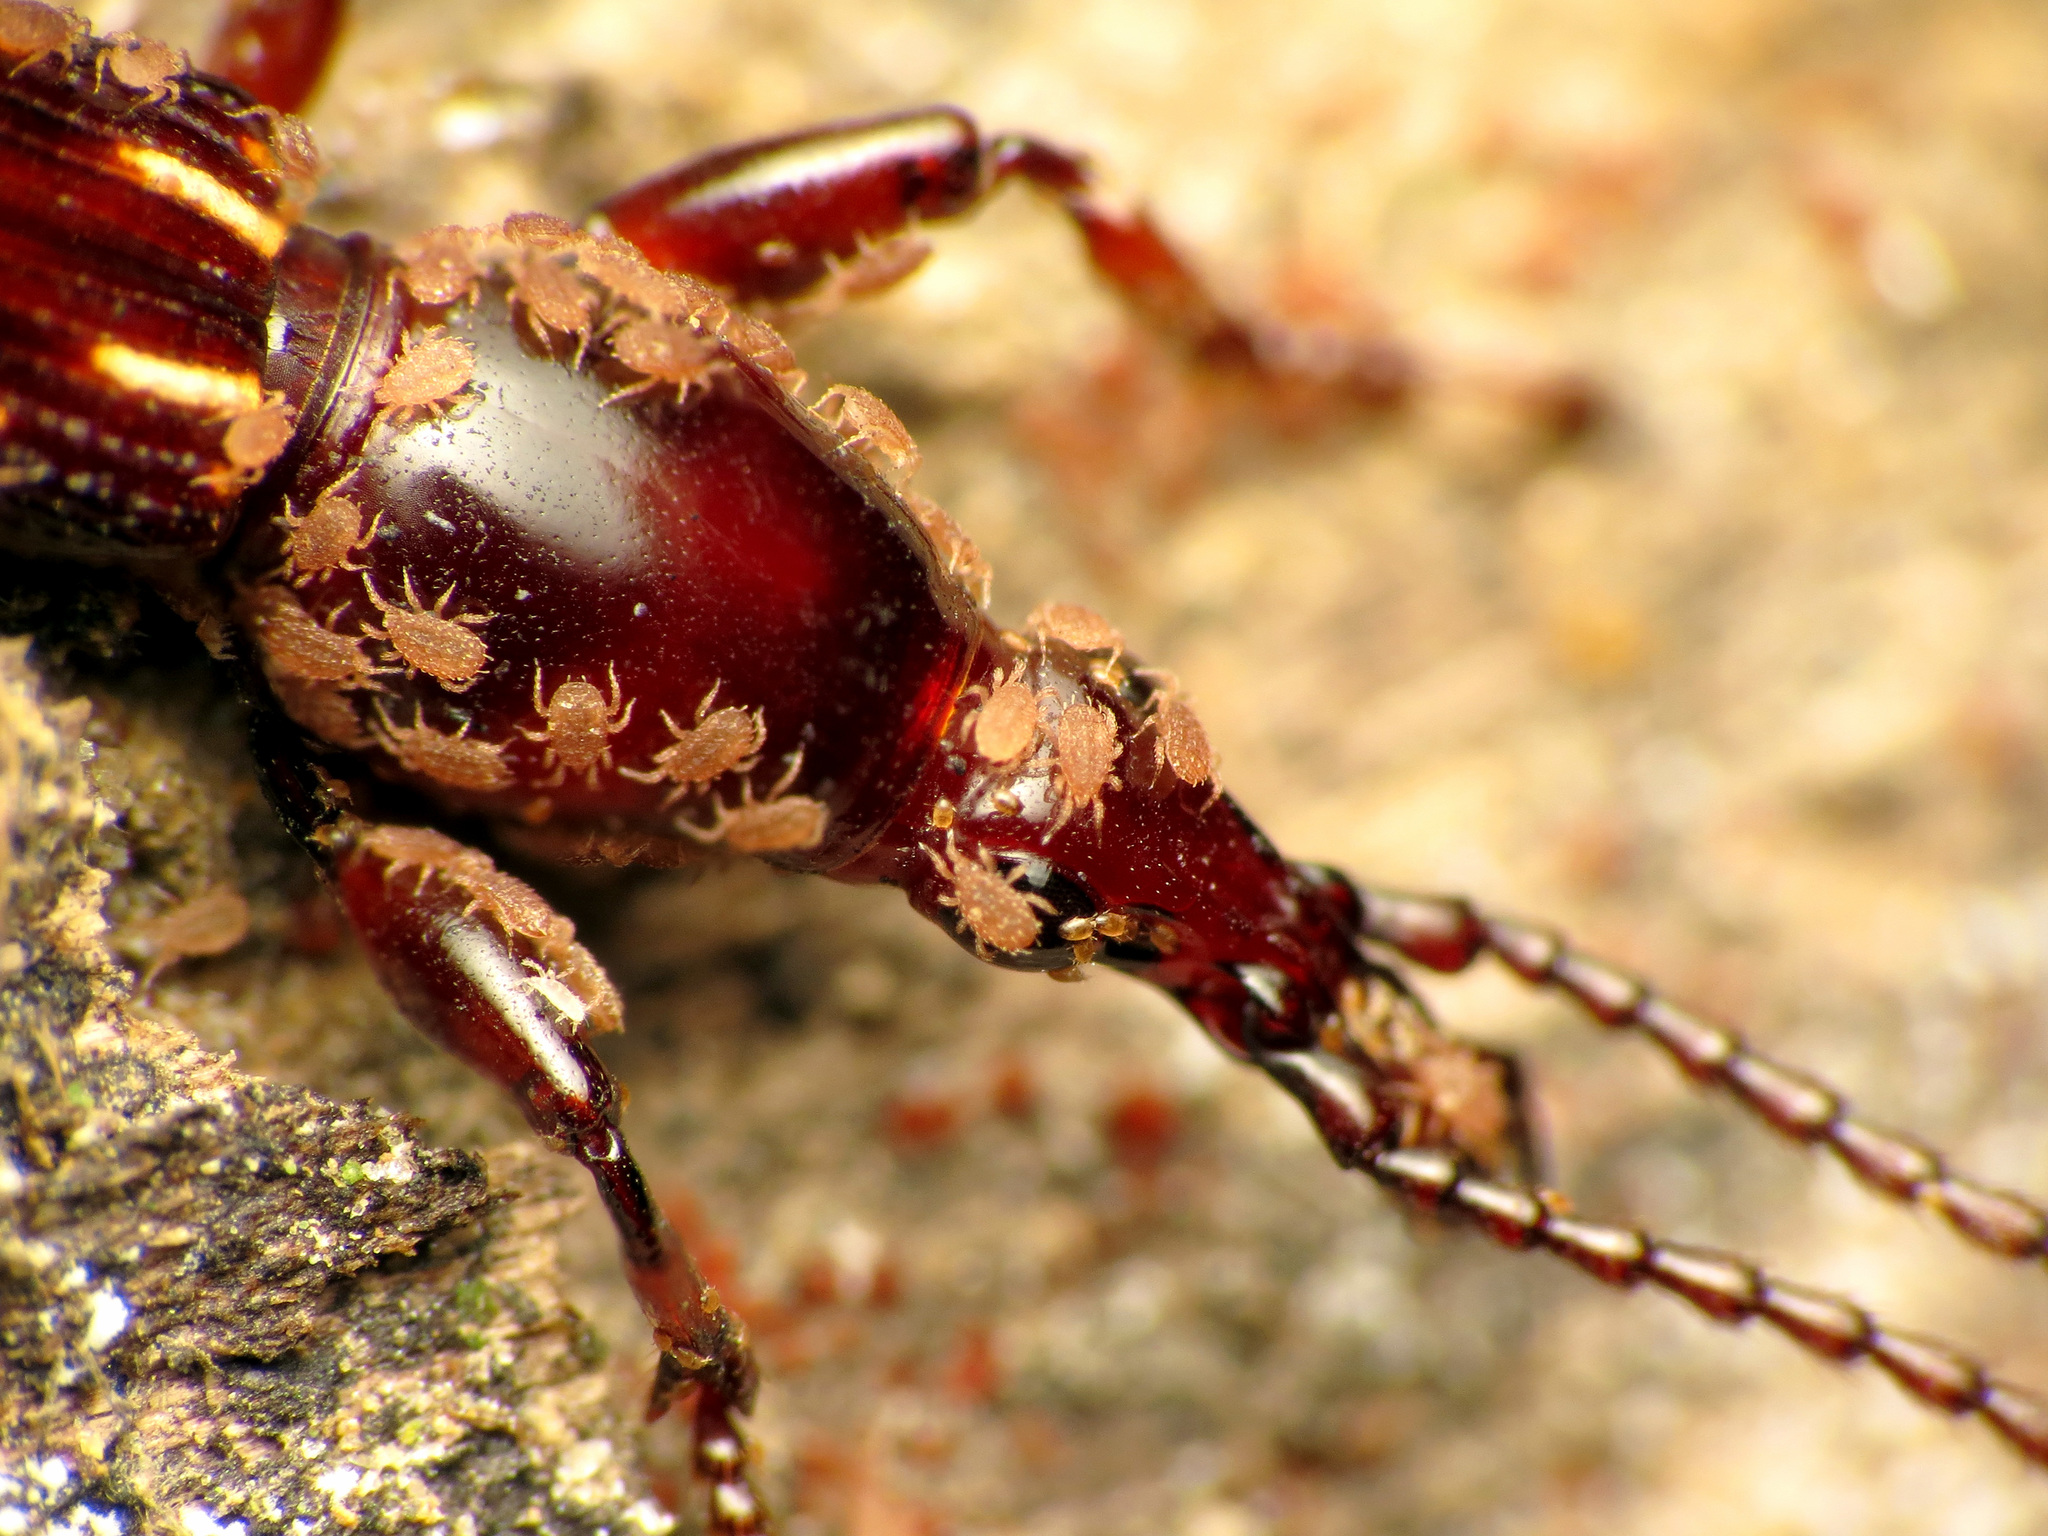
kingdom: Animalia
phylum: Arthropoda
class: Insecta
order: Coleoptera
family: Brentidae
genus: Arrenodes
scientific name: Arrenodes minutus
